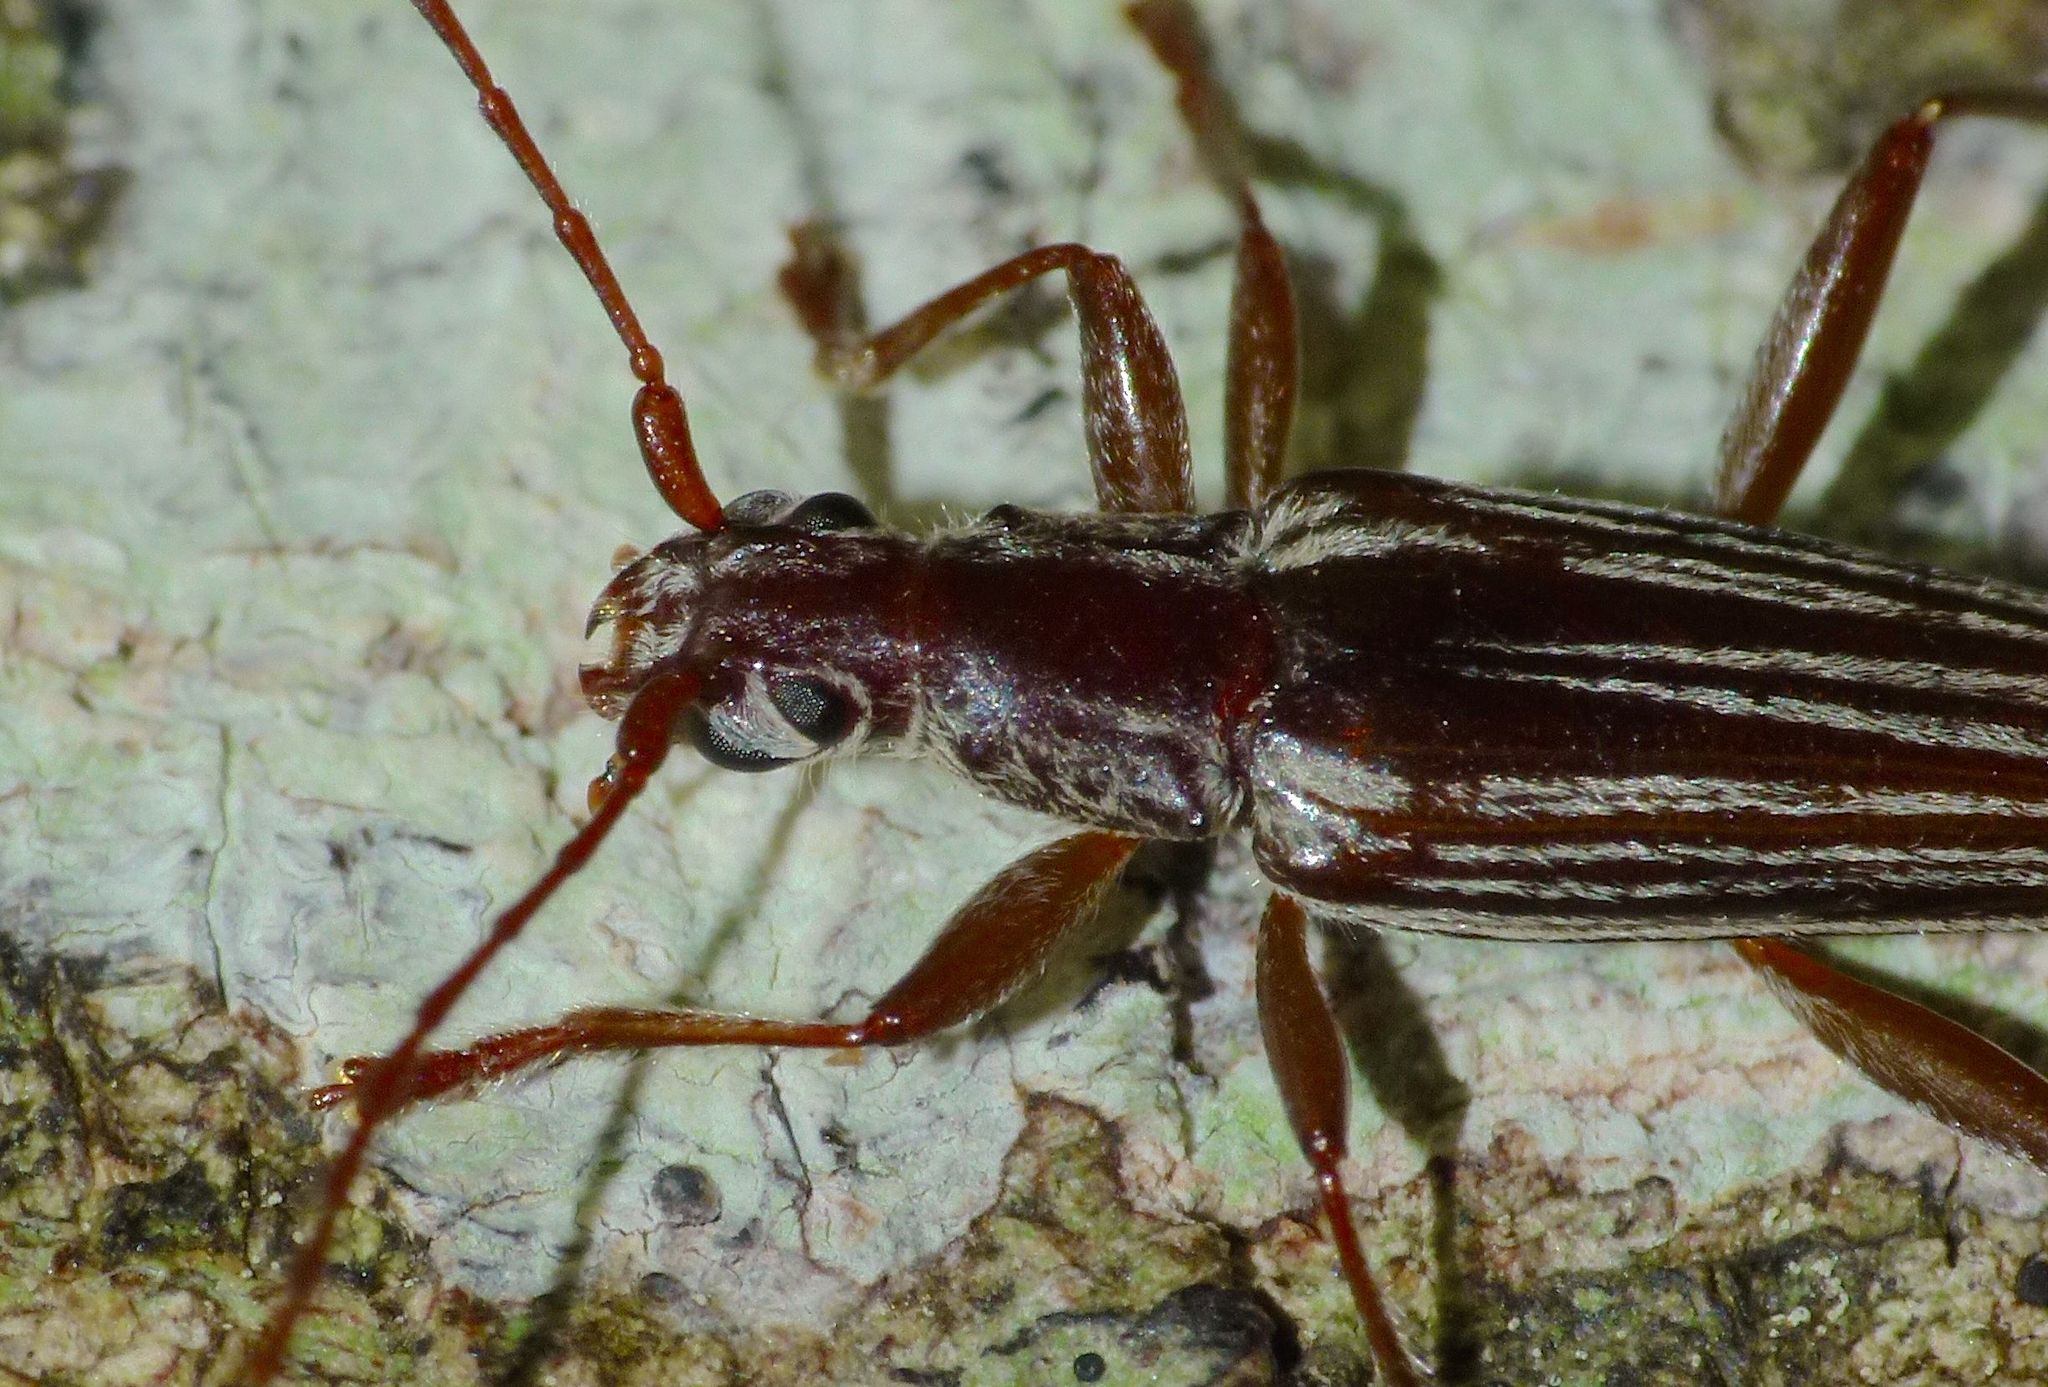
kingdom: Animalia
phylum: Arthropoda
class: Insecta
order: Coleoptera
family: Cerambycidae
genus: Coptomma
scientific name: Coptomma sulcatum
